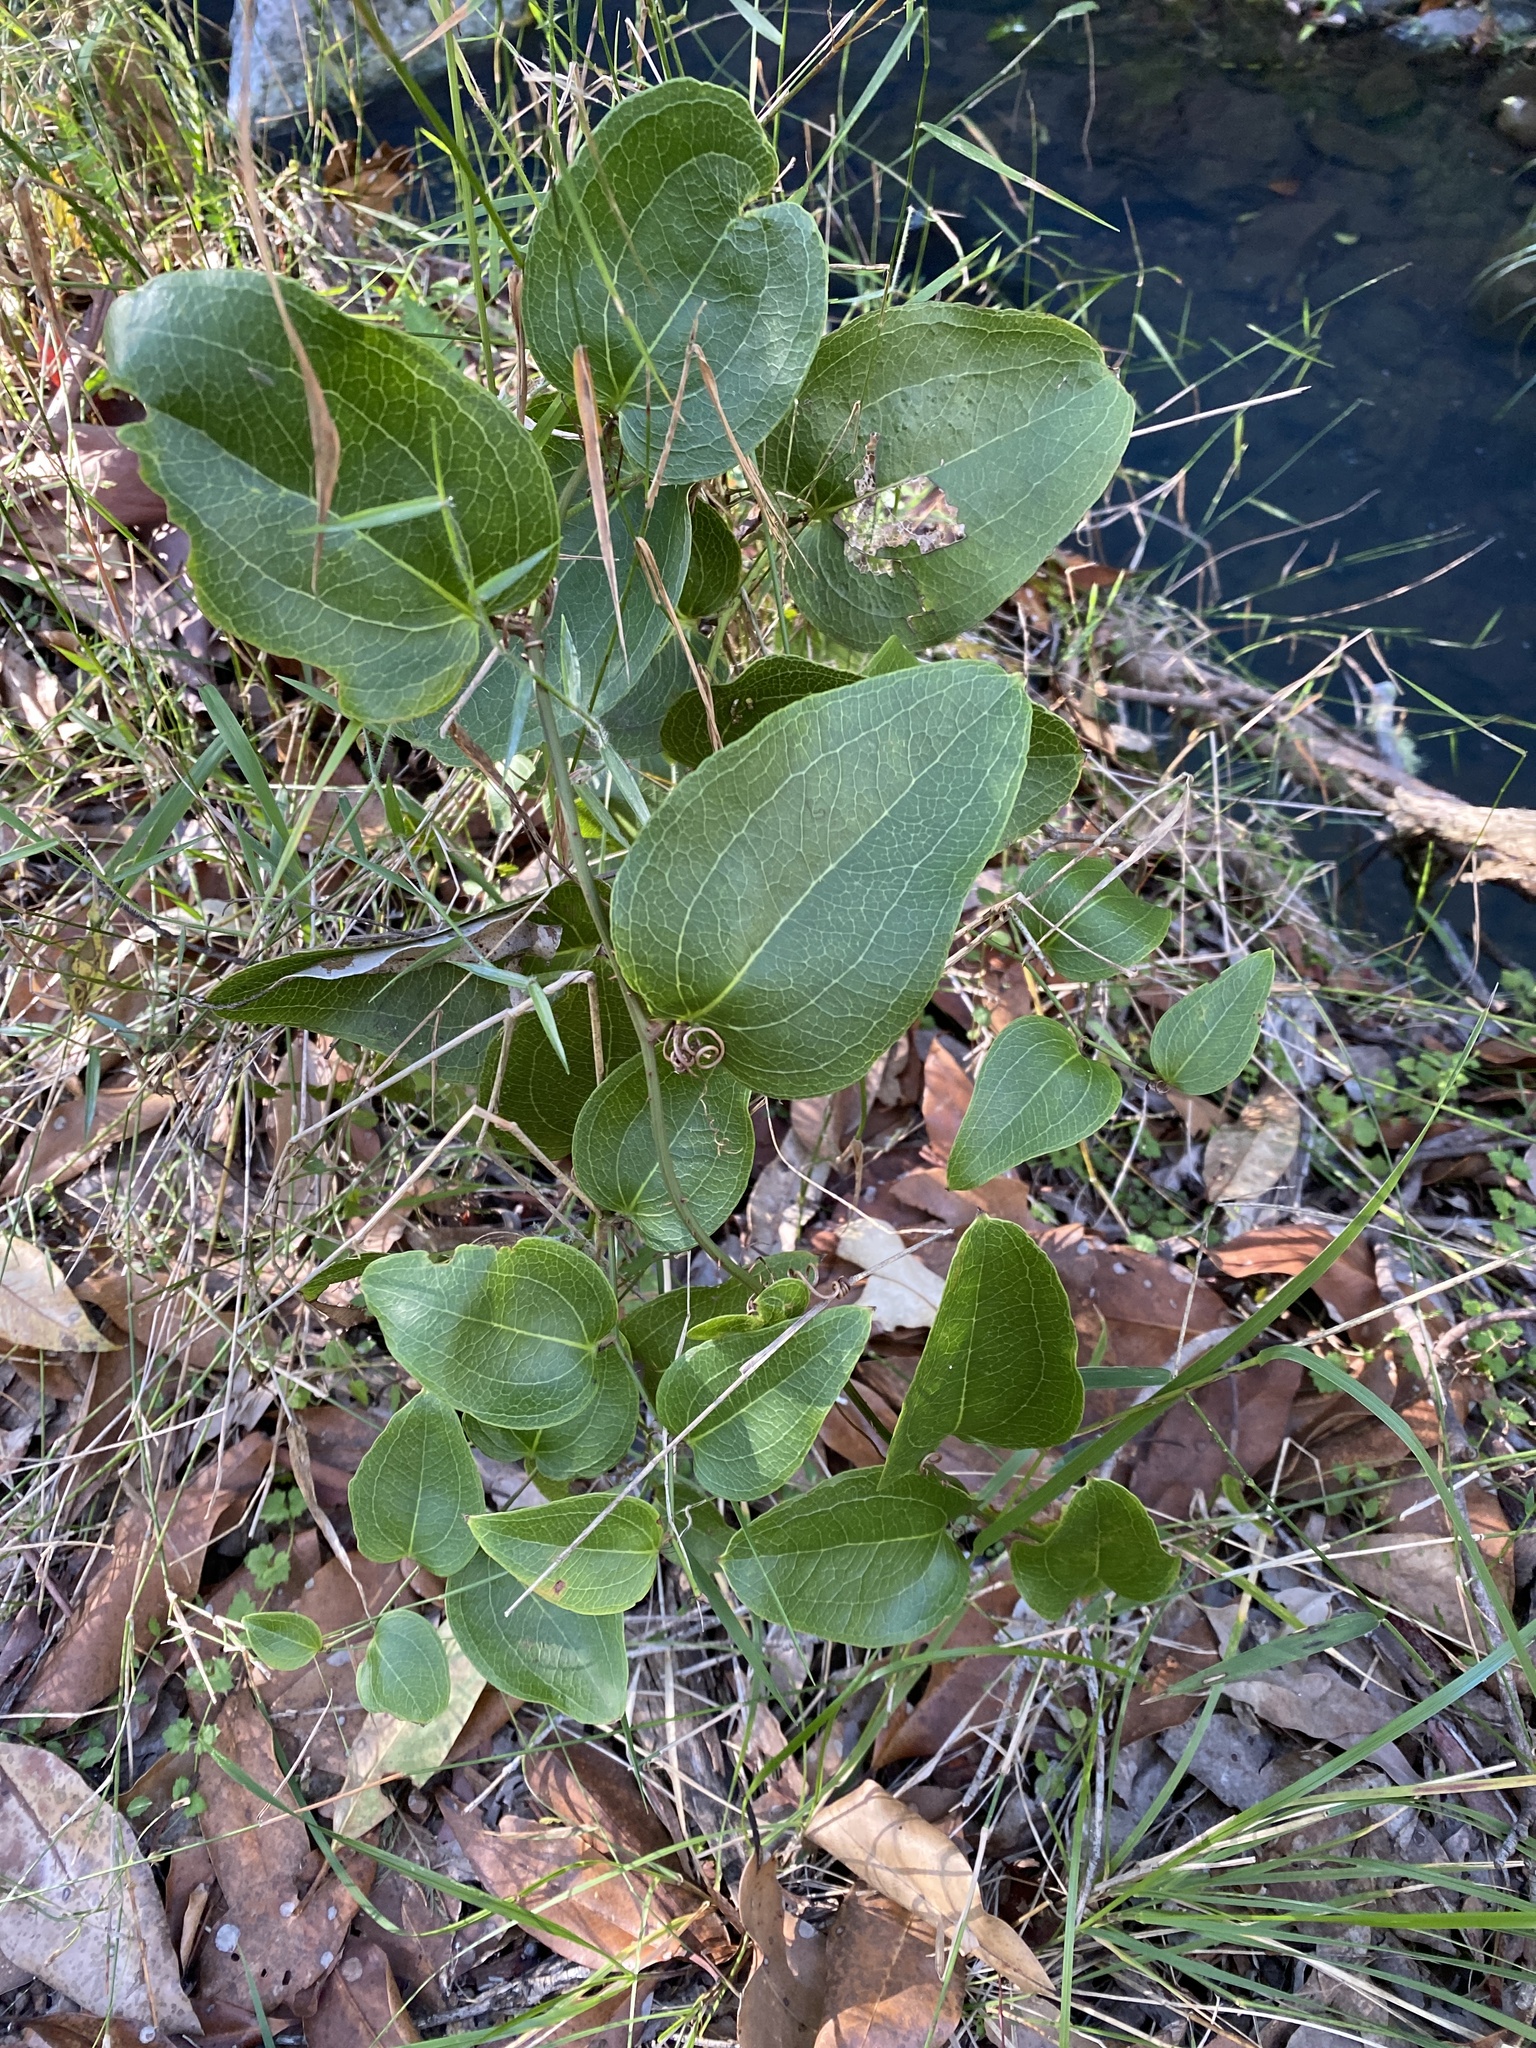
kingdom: Plantae
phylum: Tracheophyta
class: Liliopsida
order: Liliales
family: Smilacaceae
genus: Smilax
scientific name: Smilax australis
